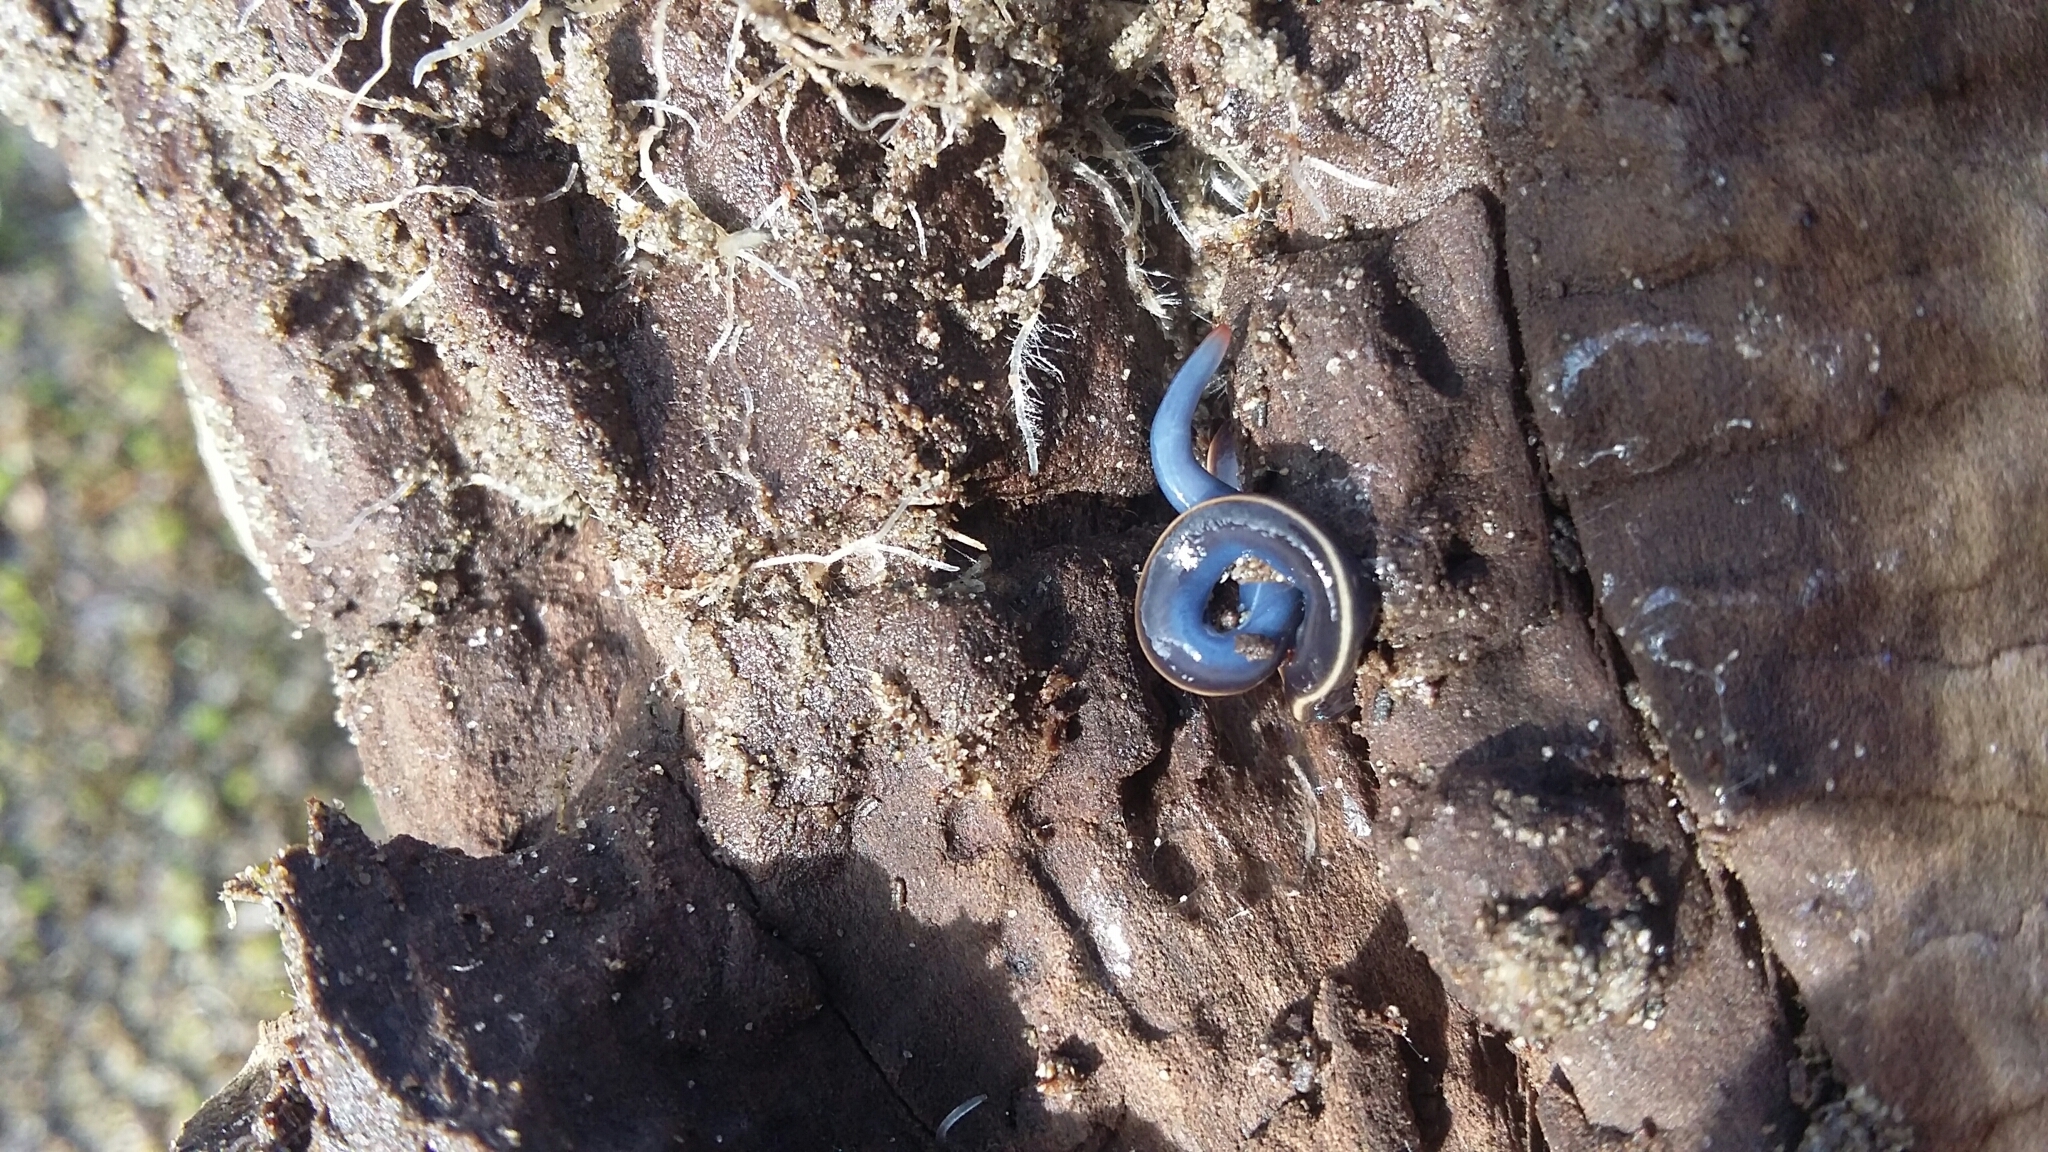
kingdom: Animalia
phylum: Platyhelminthes
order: Tricladida
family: Geoplanidae
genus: Caenoplana
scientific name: Caenoplana coerulea
